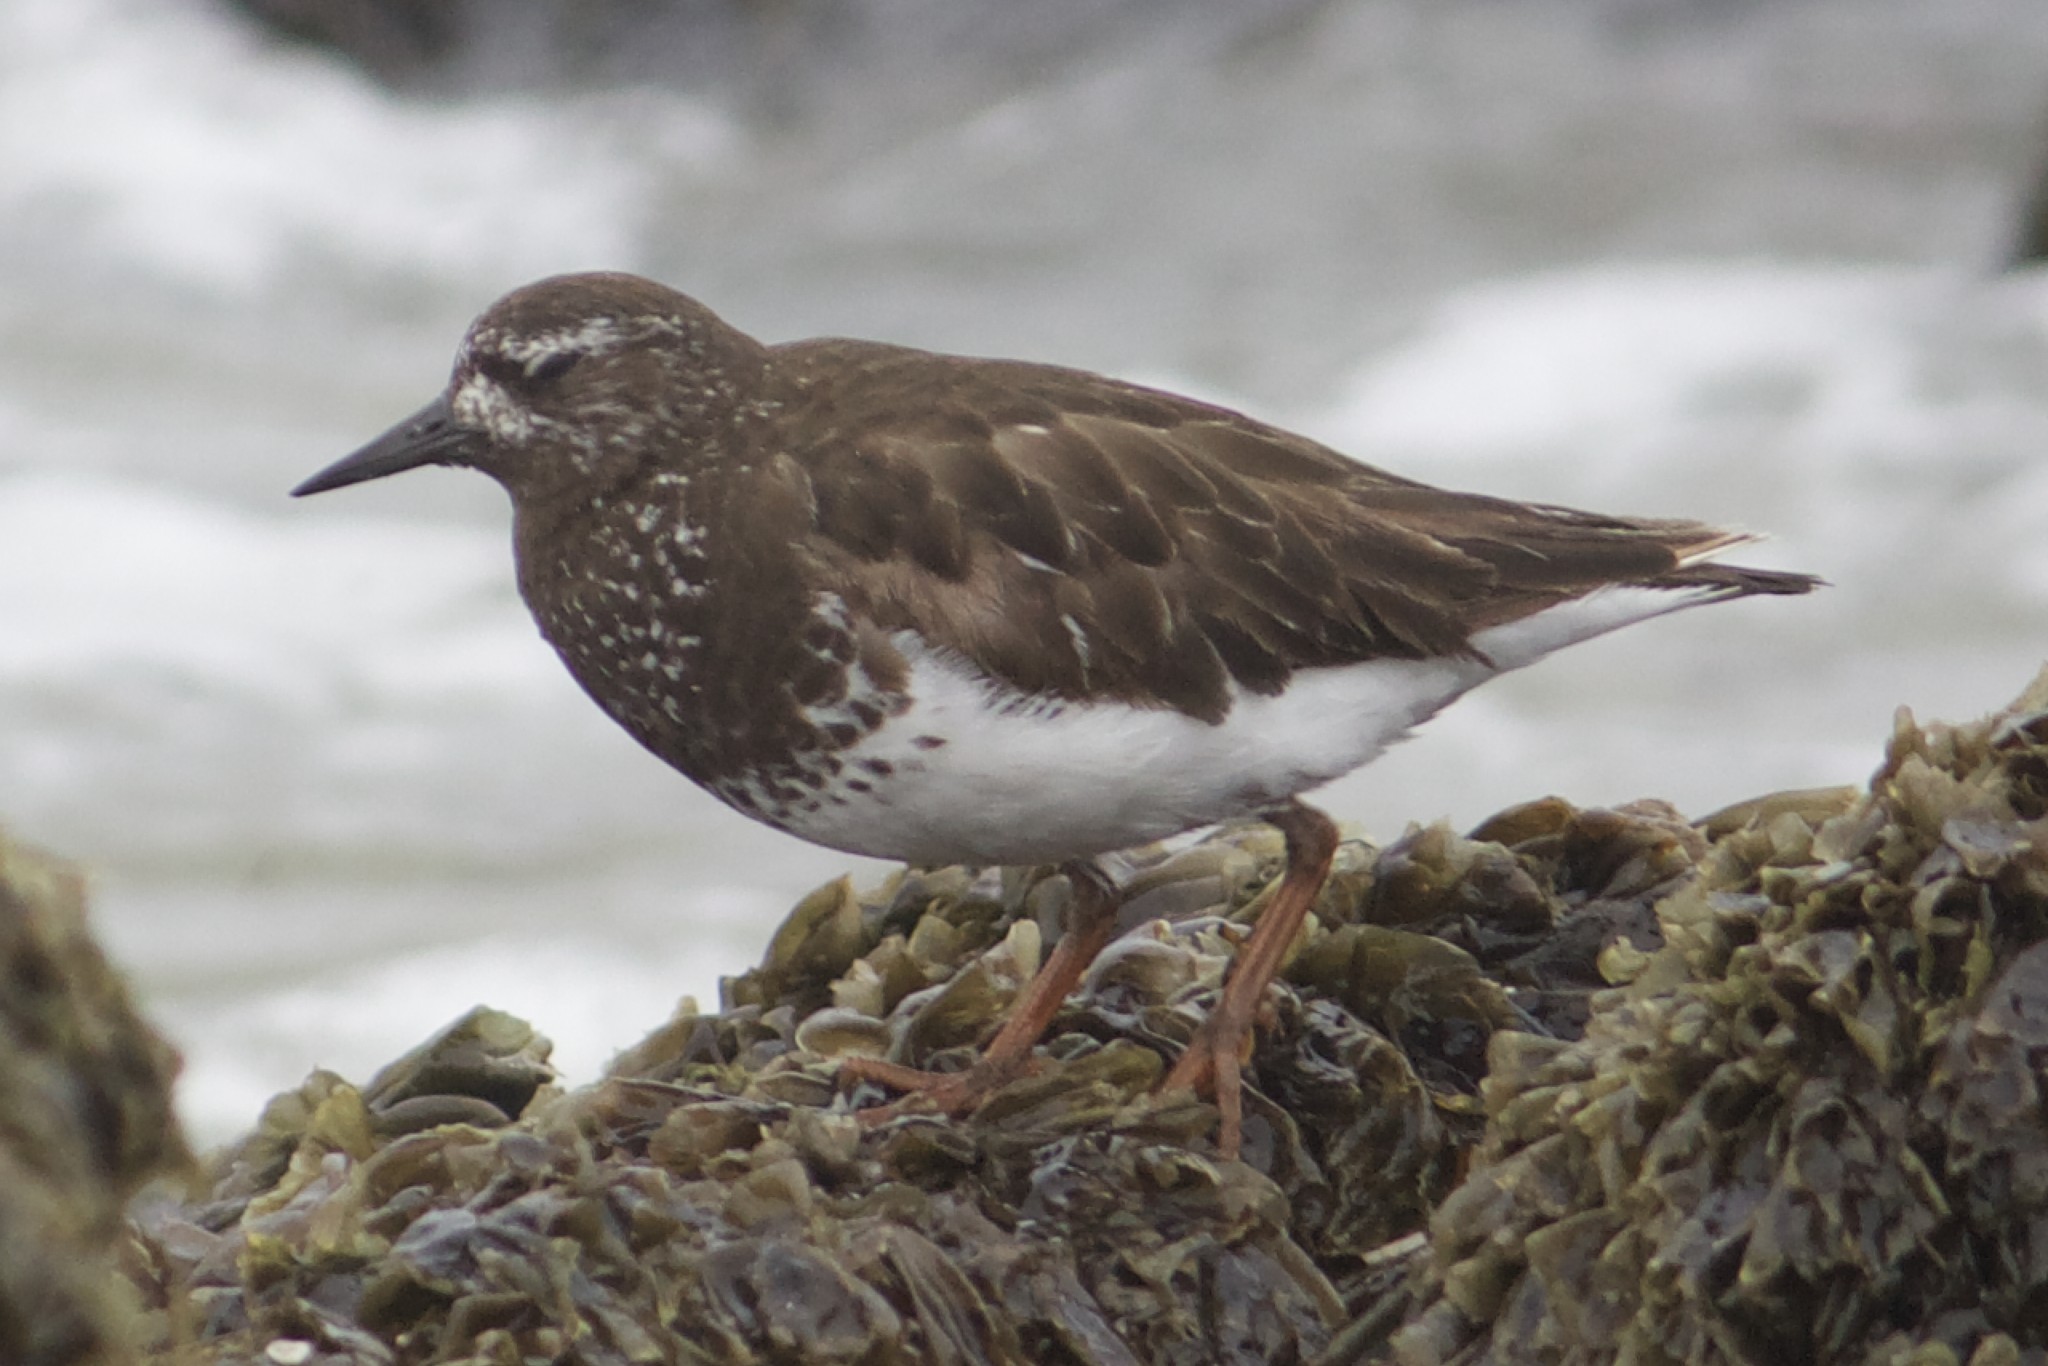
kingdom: Animalia
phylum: Chordata
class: Aves
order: Charadriiformes
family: Scolopacidae
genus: Arenaria
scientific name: Arenaria melanocephala
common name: Black turnstone
